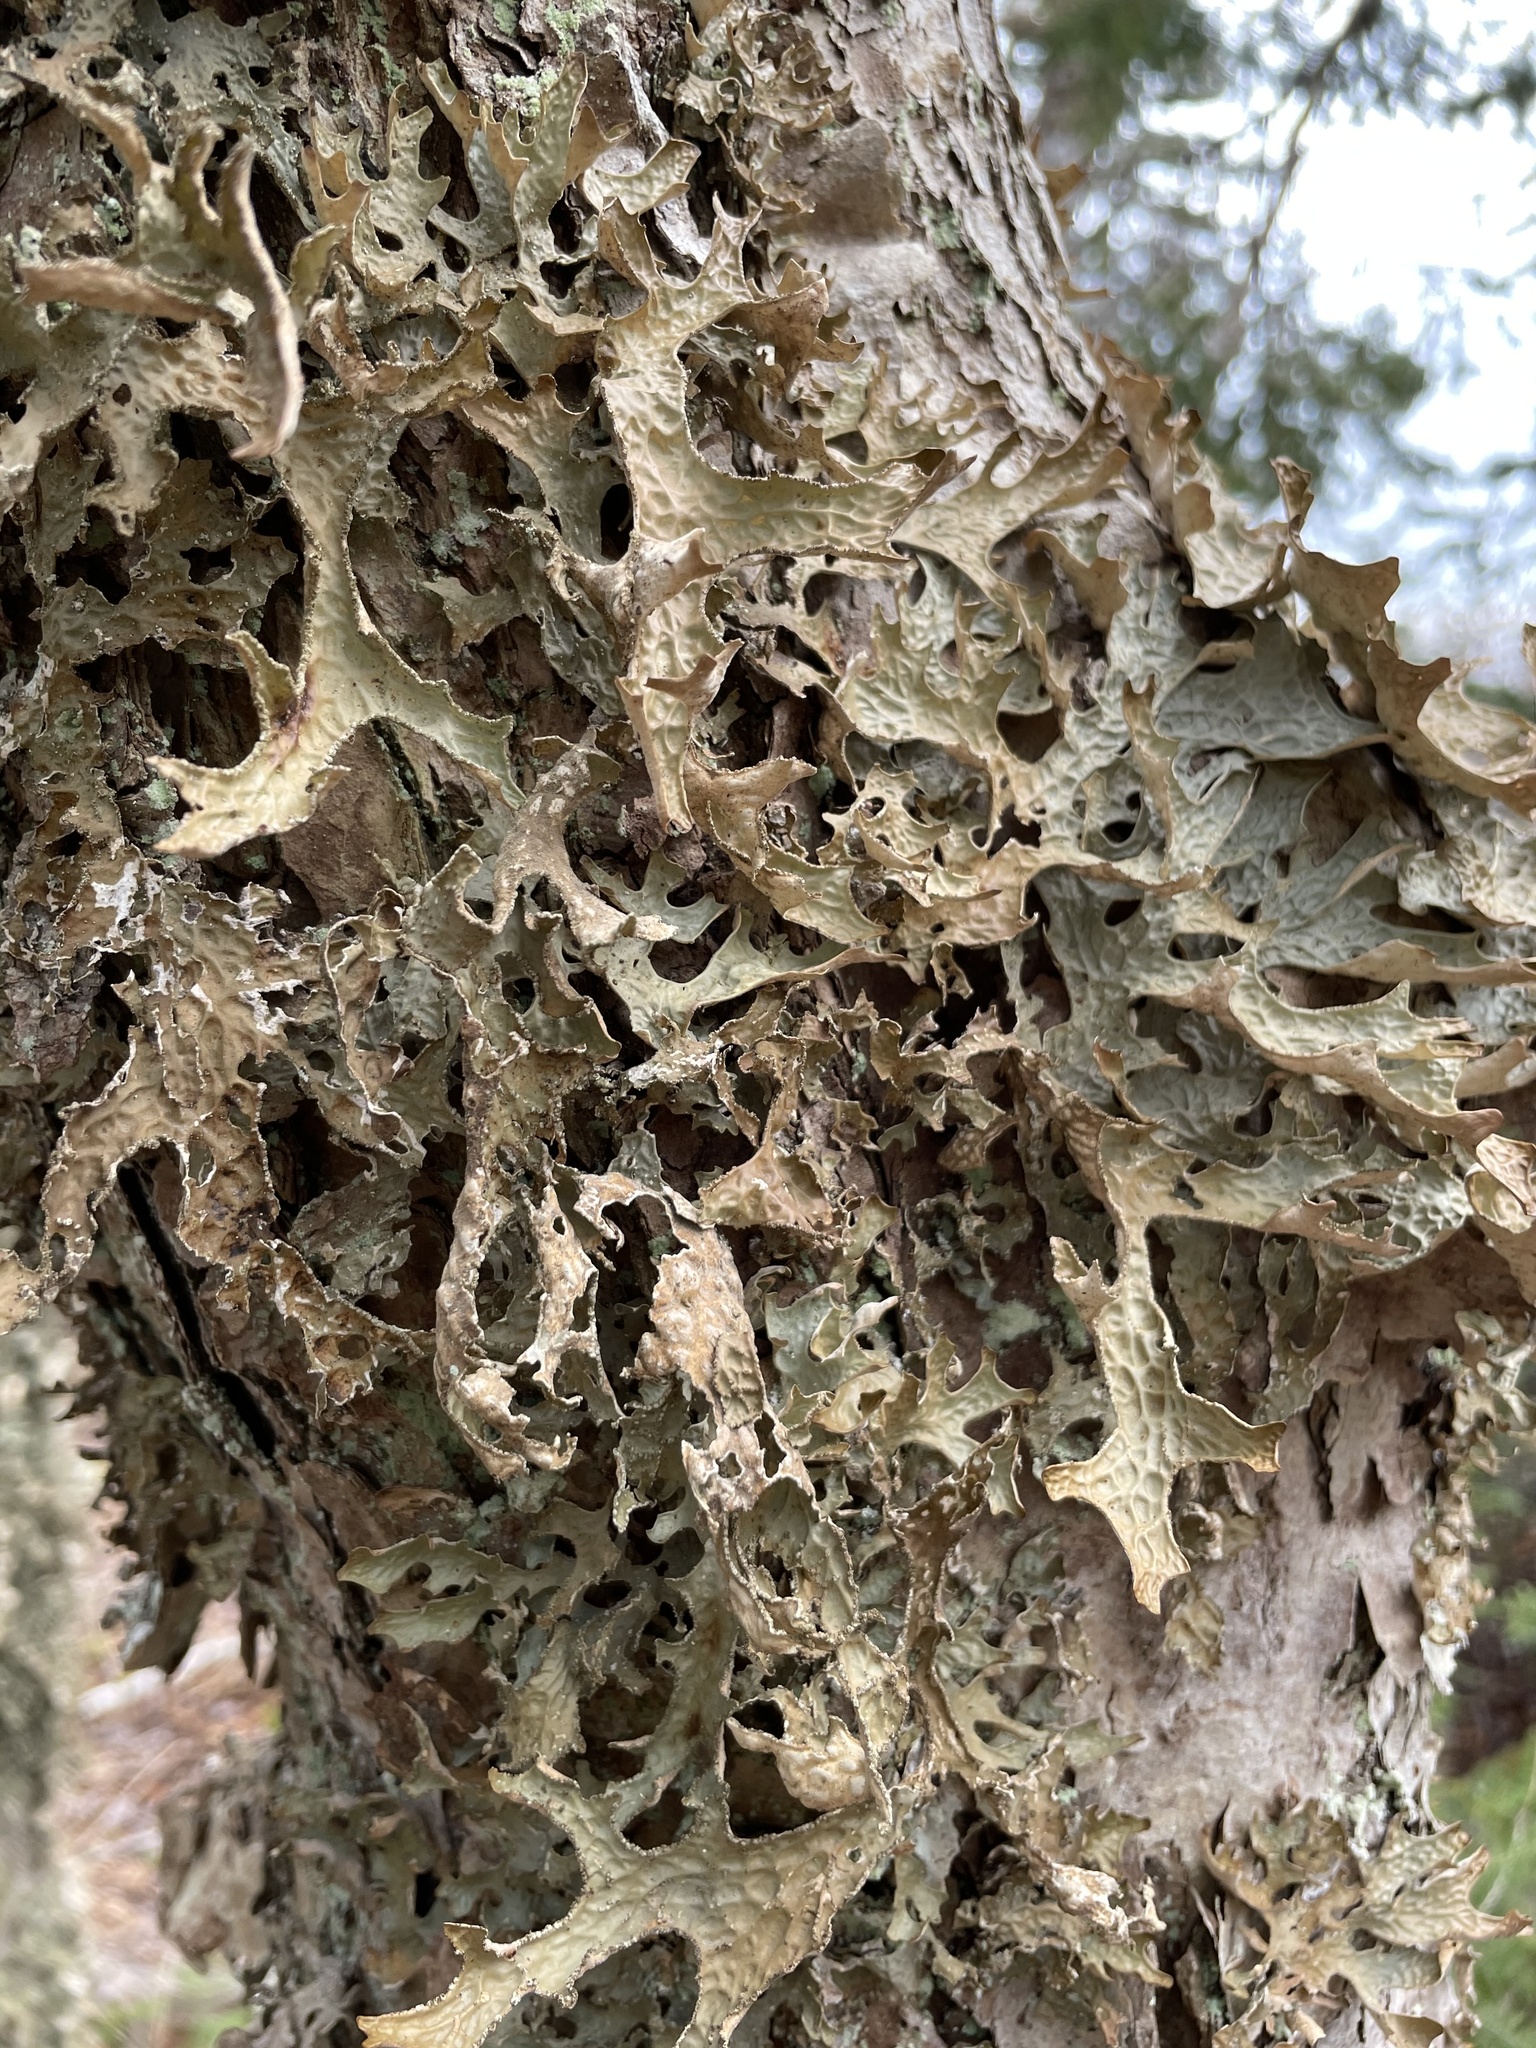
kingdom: Fungi
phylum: Ascomycota
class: Lecanoromycetes
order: Peltigerales
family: Lobariaceae
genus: Lobaria
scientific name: Lobaria pulmonaria
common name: Lungwort
